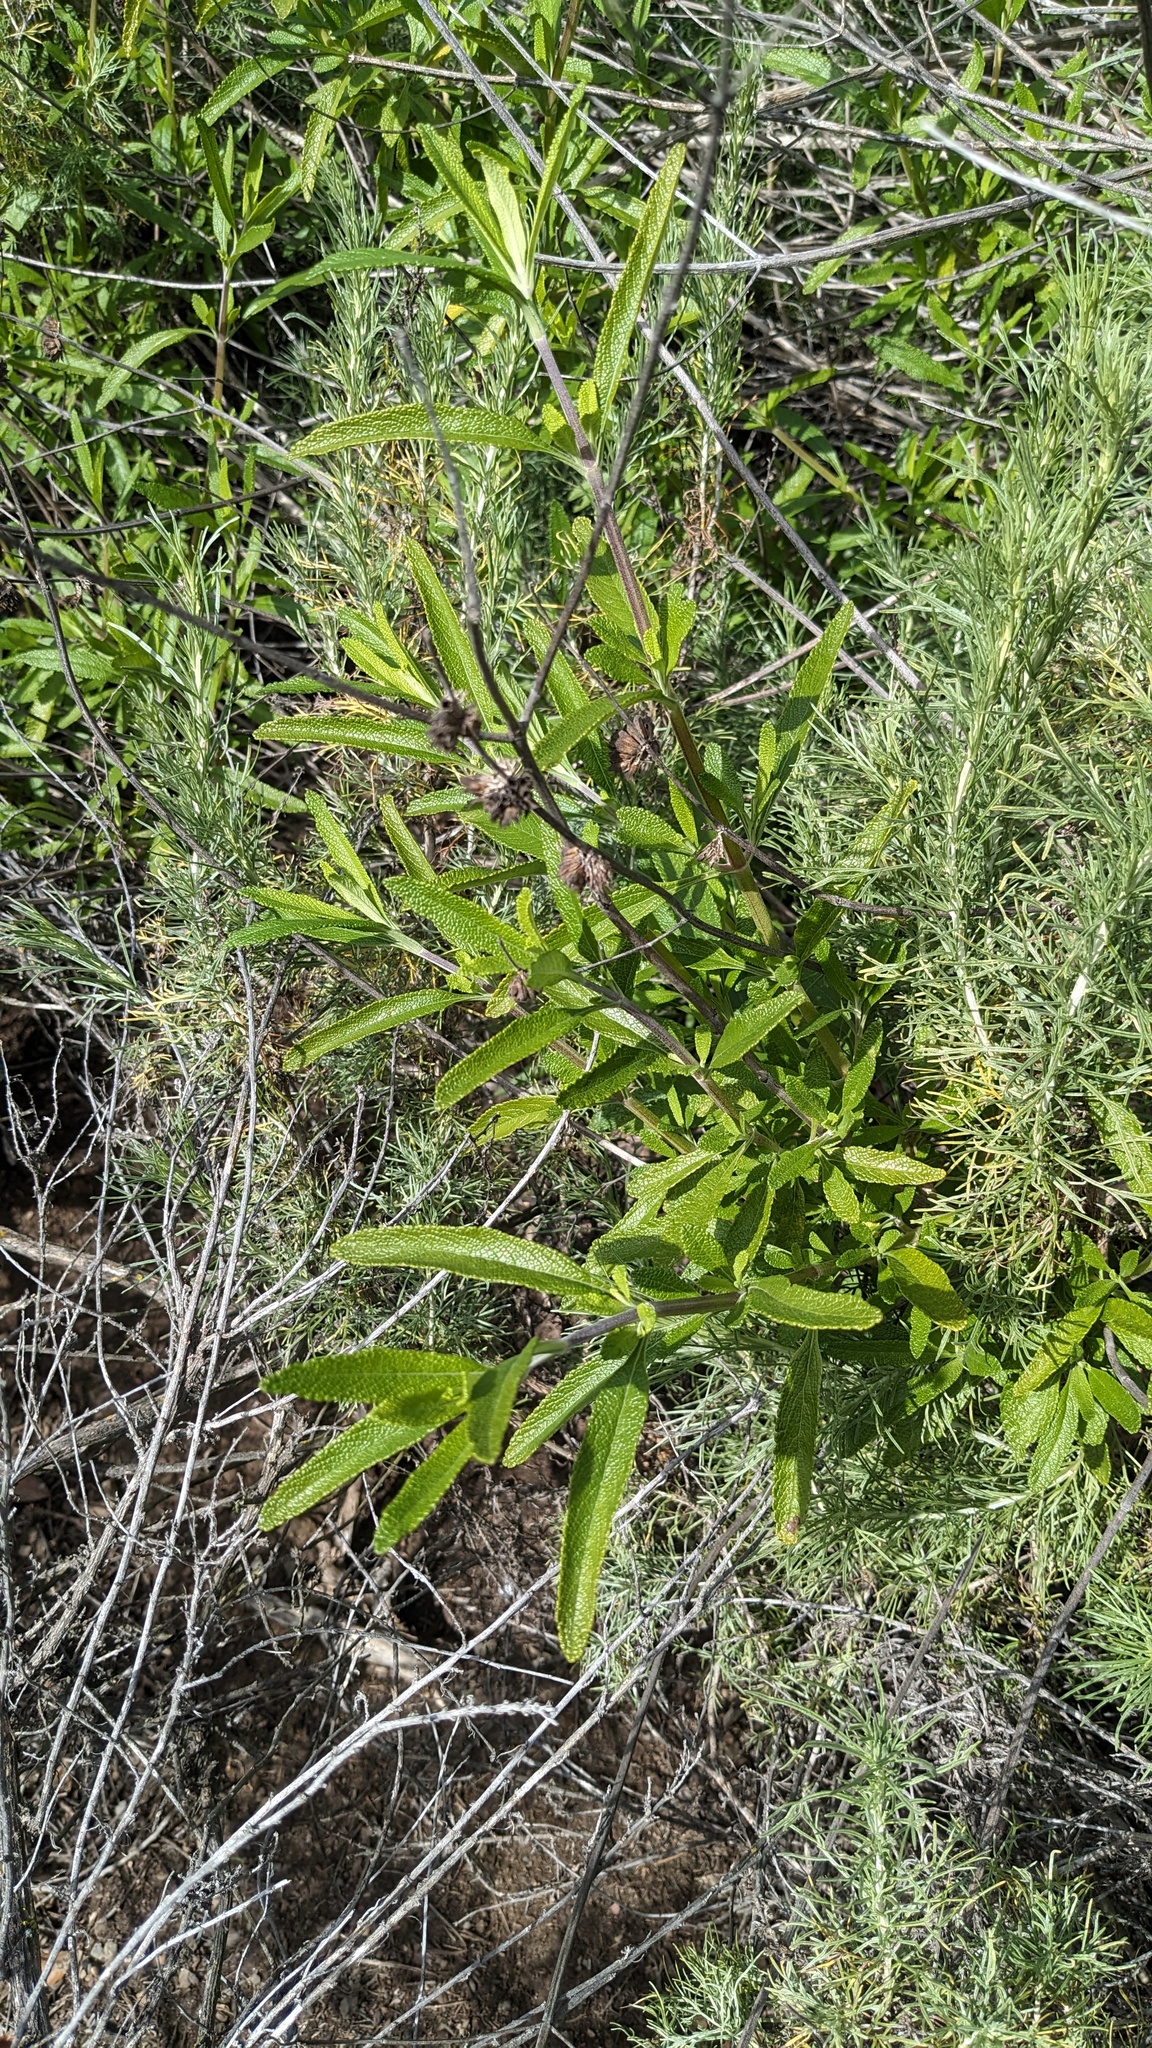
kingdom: Plantae
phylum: Tracheophyta
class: Magnoliopsida
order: Lamiales
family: Lamiaceae
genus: Salvia
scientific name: Salvia mellifera
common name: Black sage
